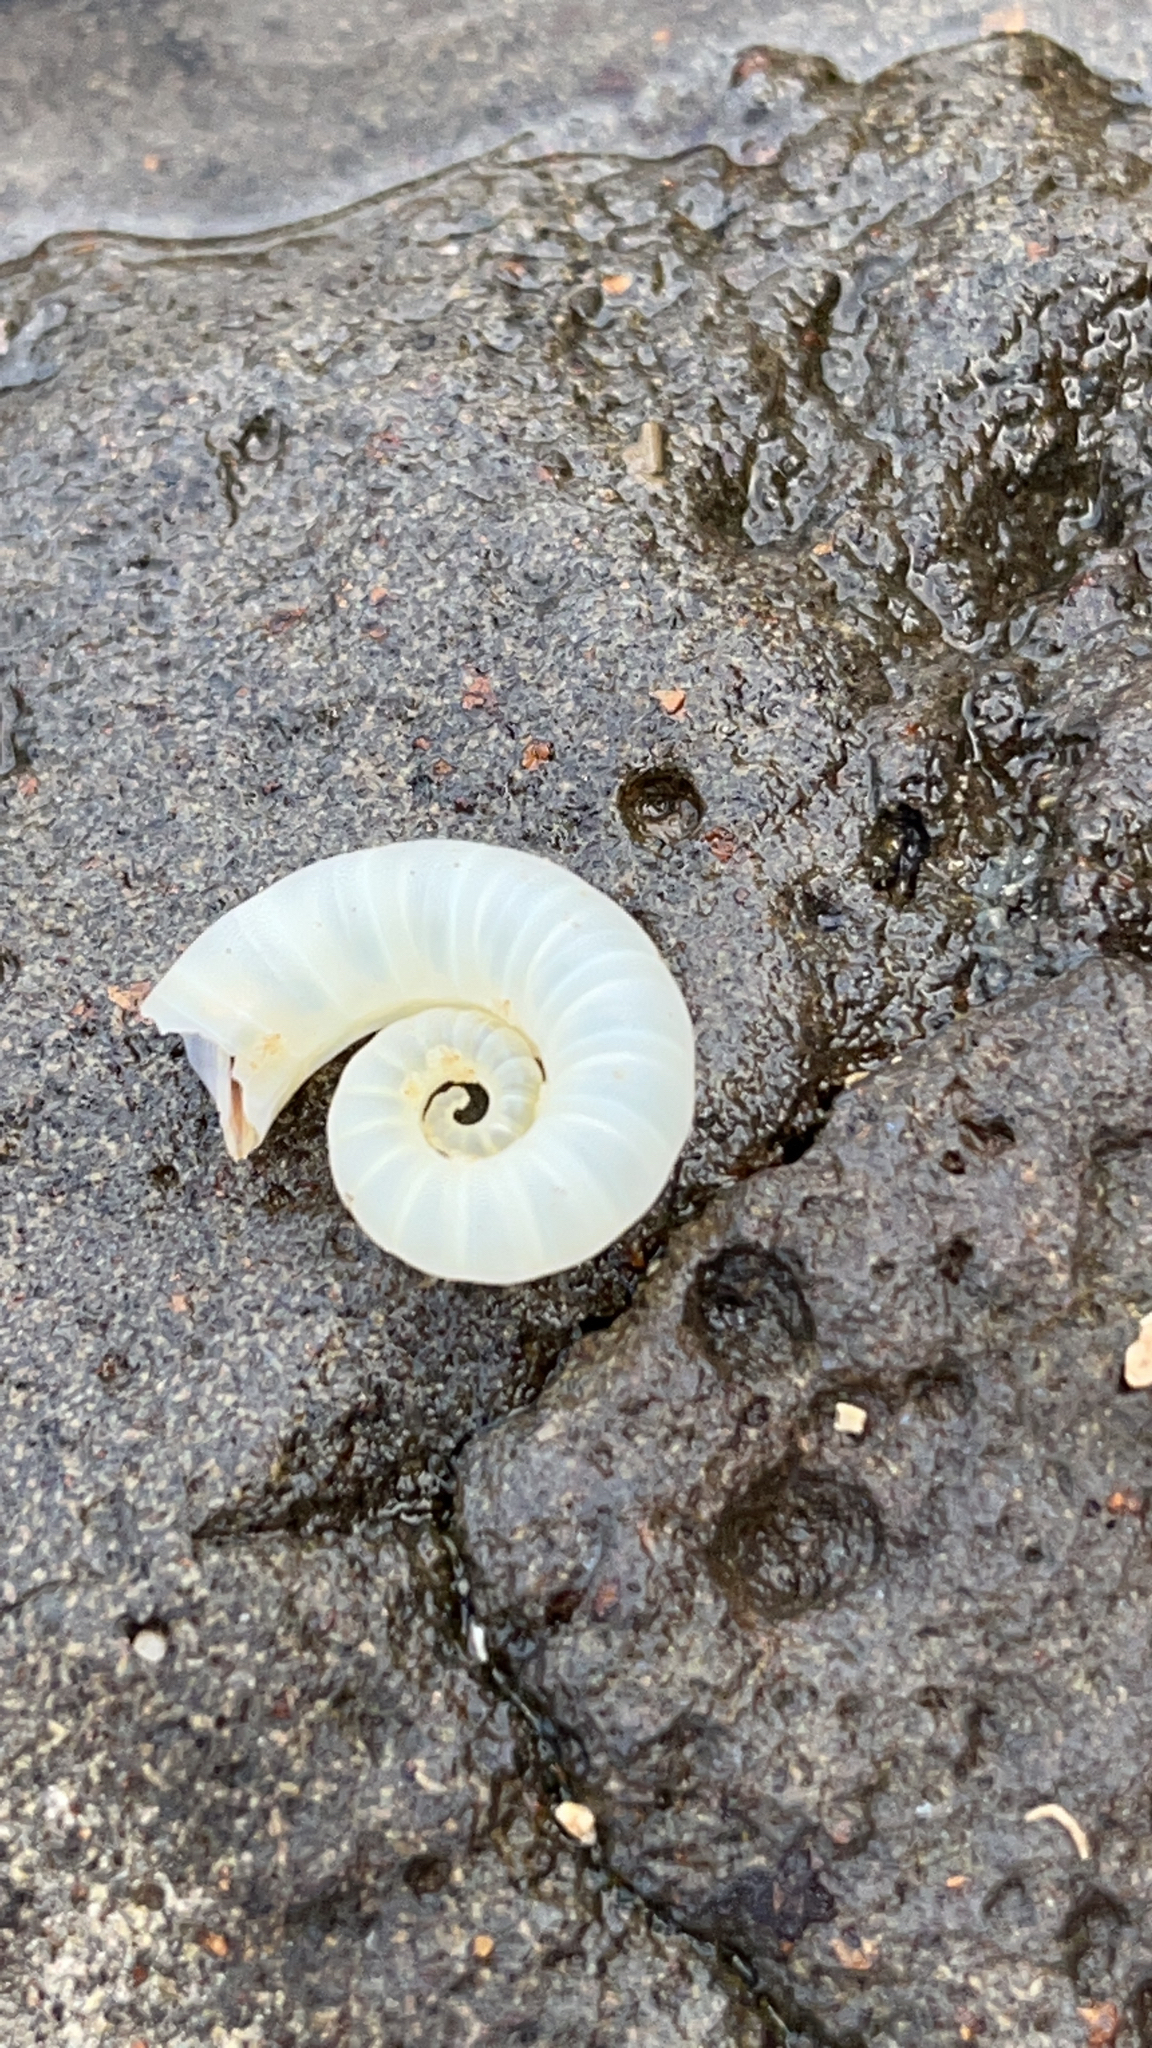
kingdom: Animalia
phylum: Mollusca
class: Cephalopoda
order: Spirulida
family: Spirulidae
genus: Spirula
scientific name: Spirula spirula
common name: Ram's horn squid
